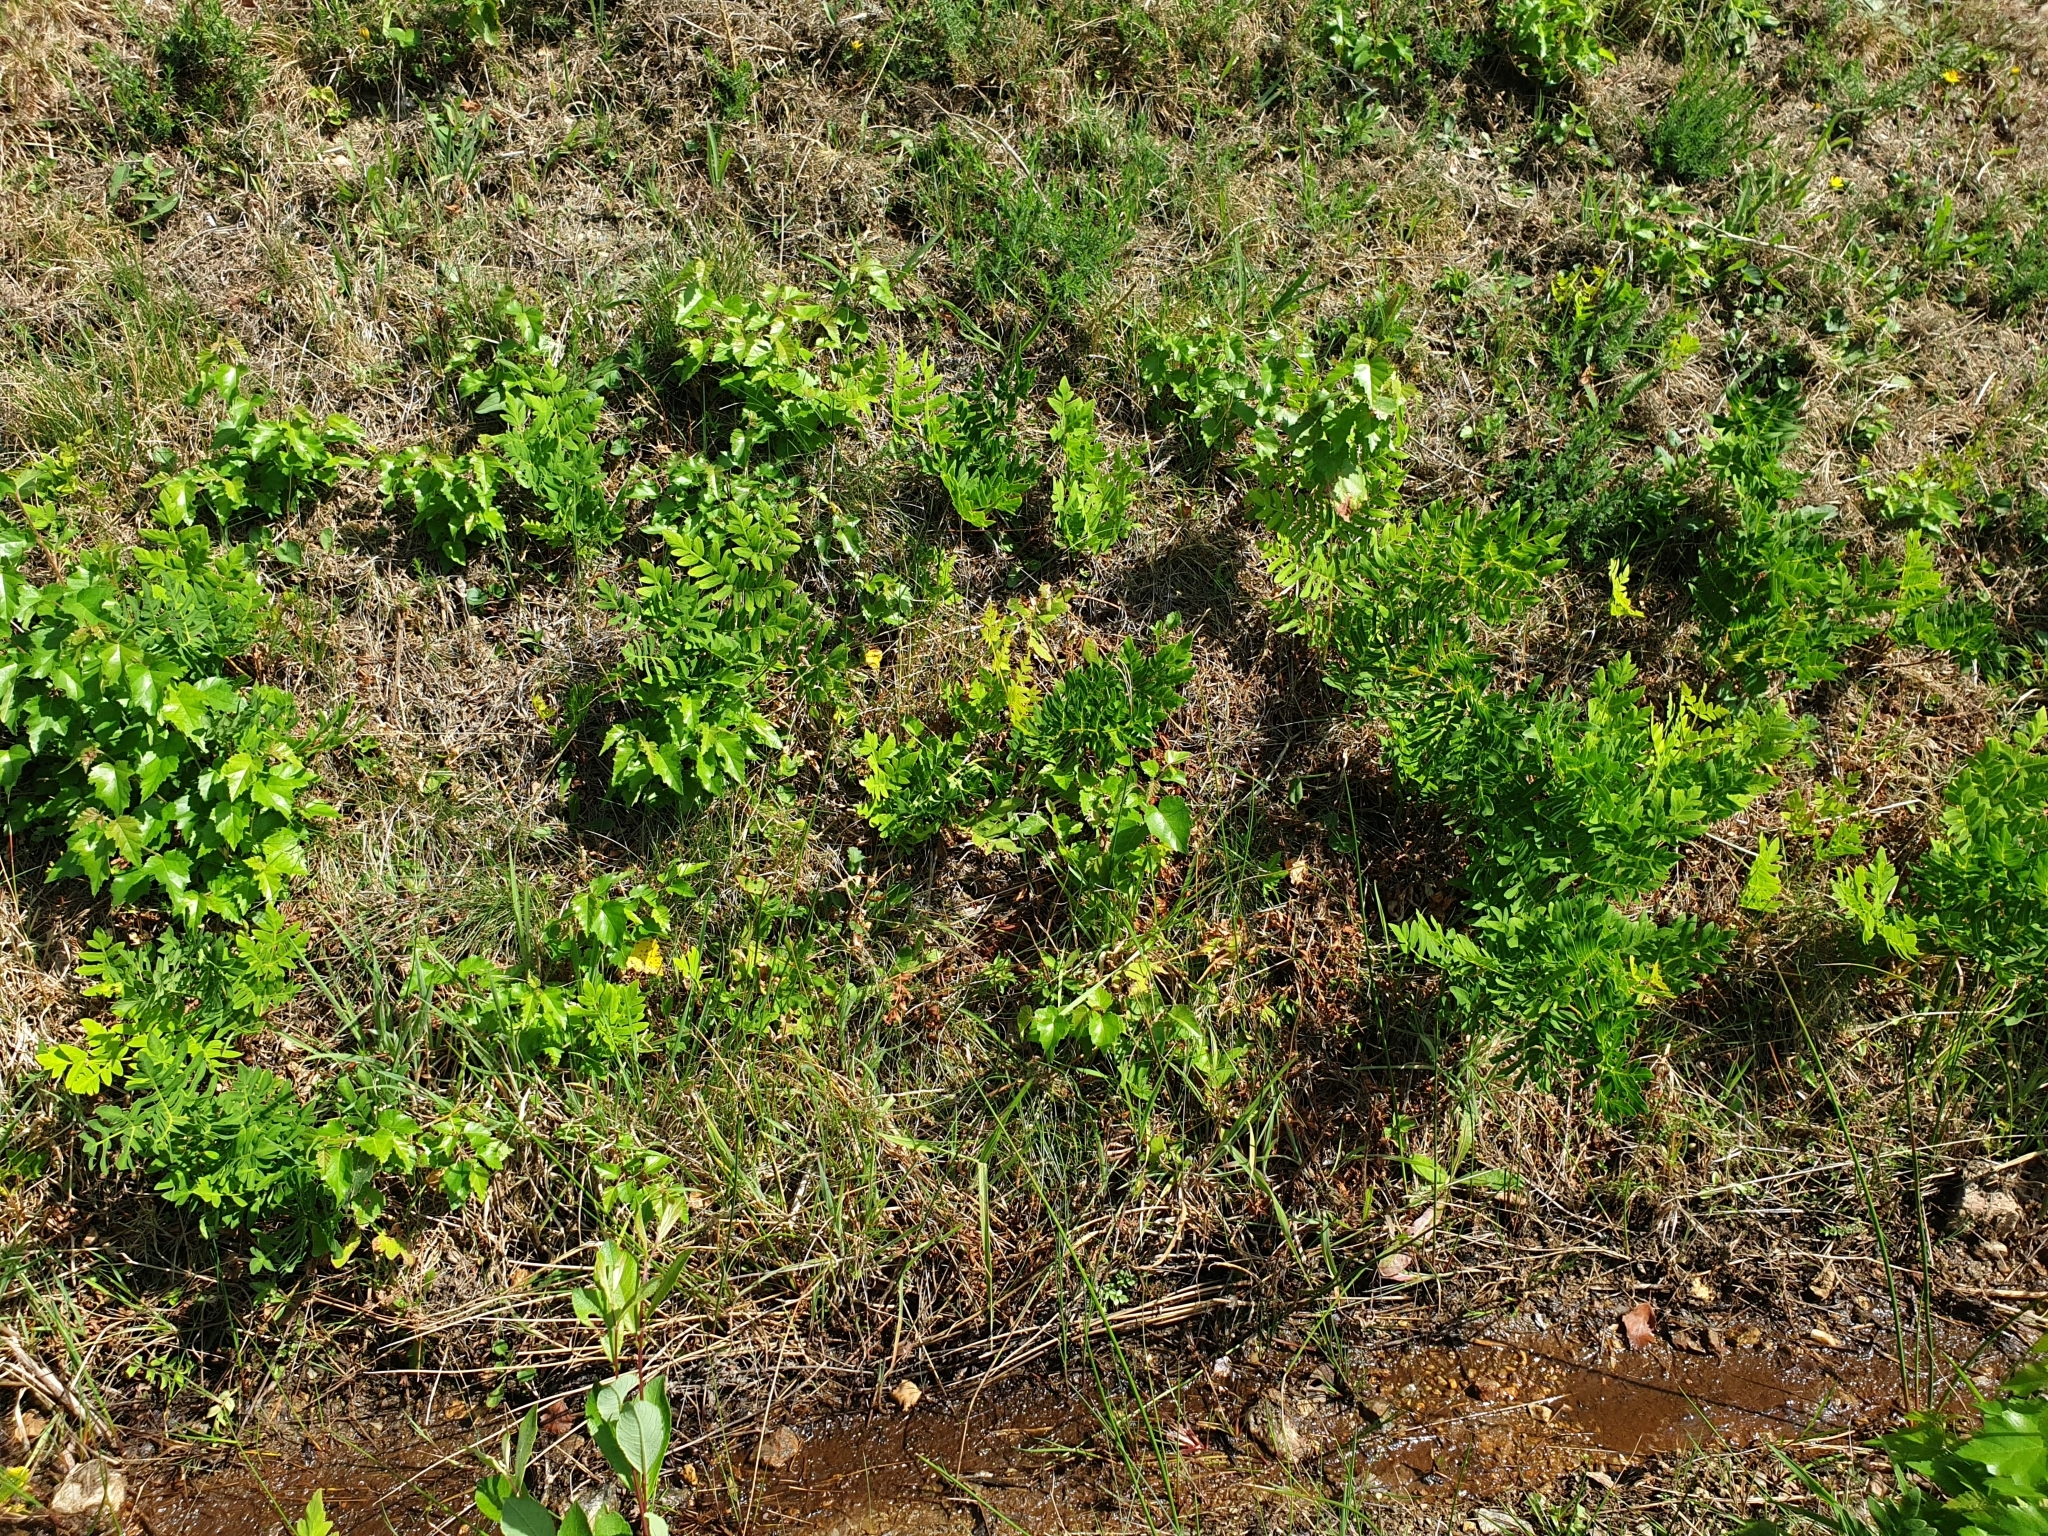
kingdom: Plantae
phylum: Tracheophyta
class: Polypodiopsida
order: Osmundales
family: Osmundaceae
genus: Osmunda
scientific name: Osmunda regalis
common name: Royal fern
